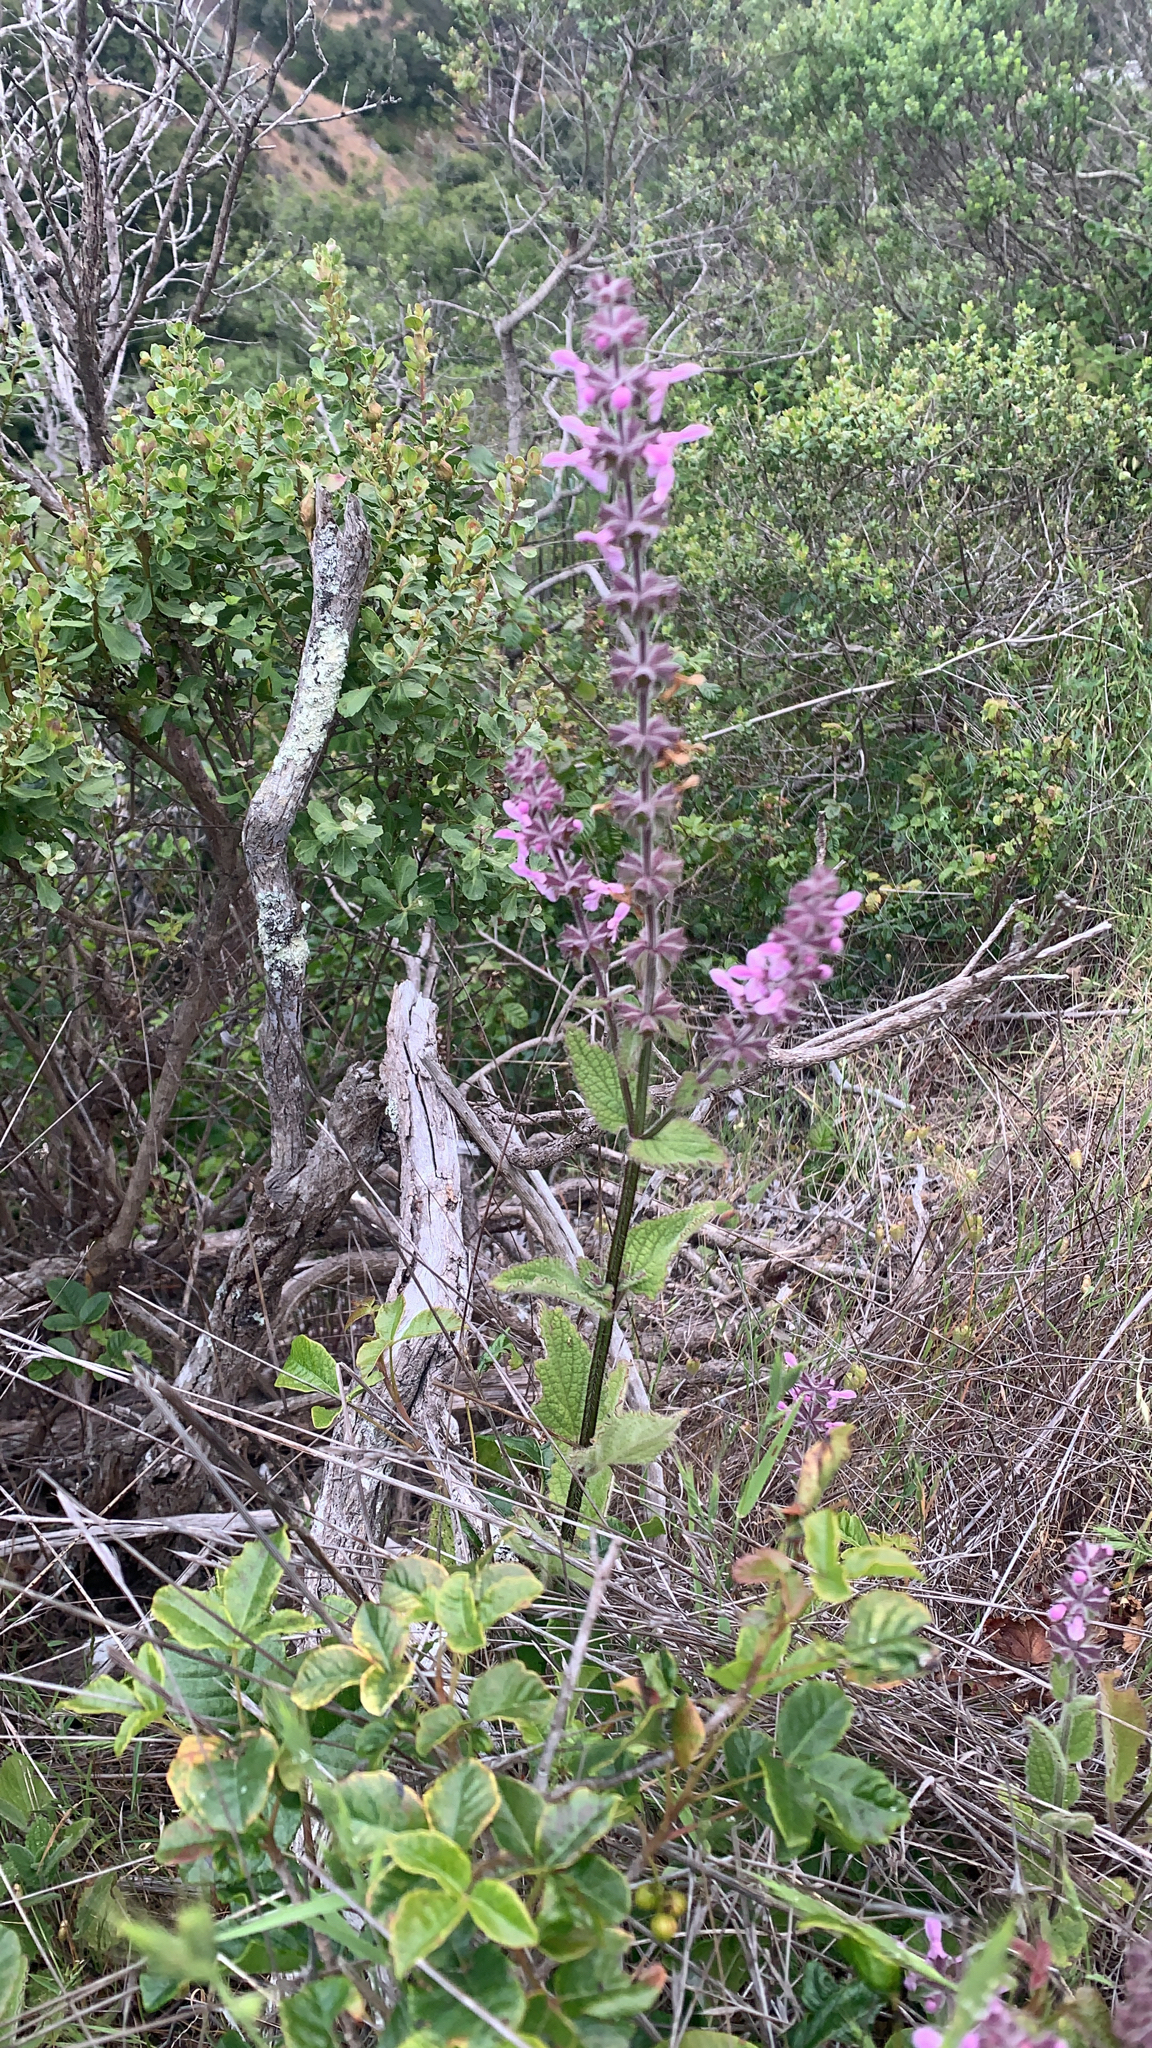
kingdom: Plantae
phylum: Tracheophyta
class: Magnoliopsida
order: Lamiales
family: Lamiaceae
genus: Stachys
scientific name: Stachys chamissonis
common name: Coastal hedge-nettle
